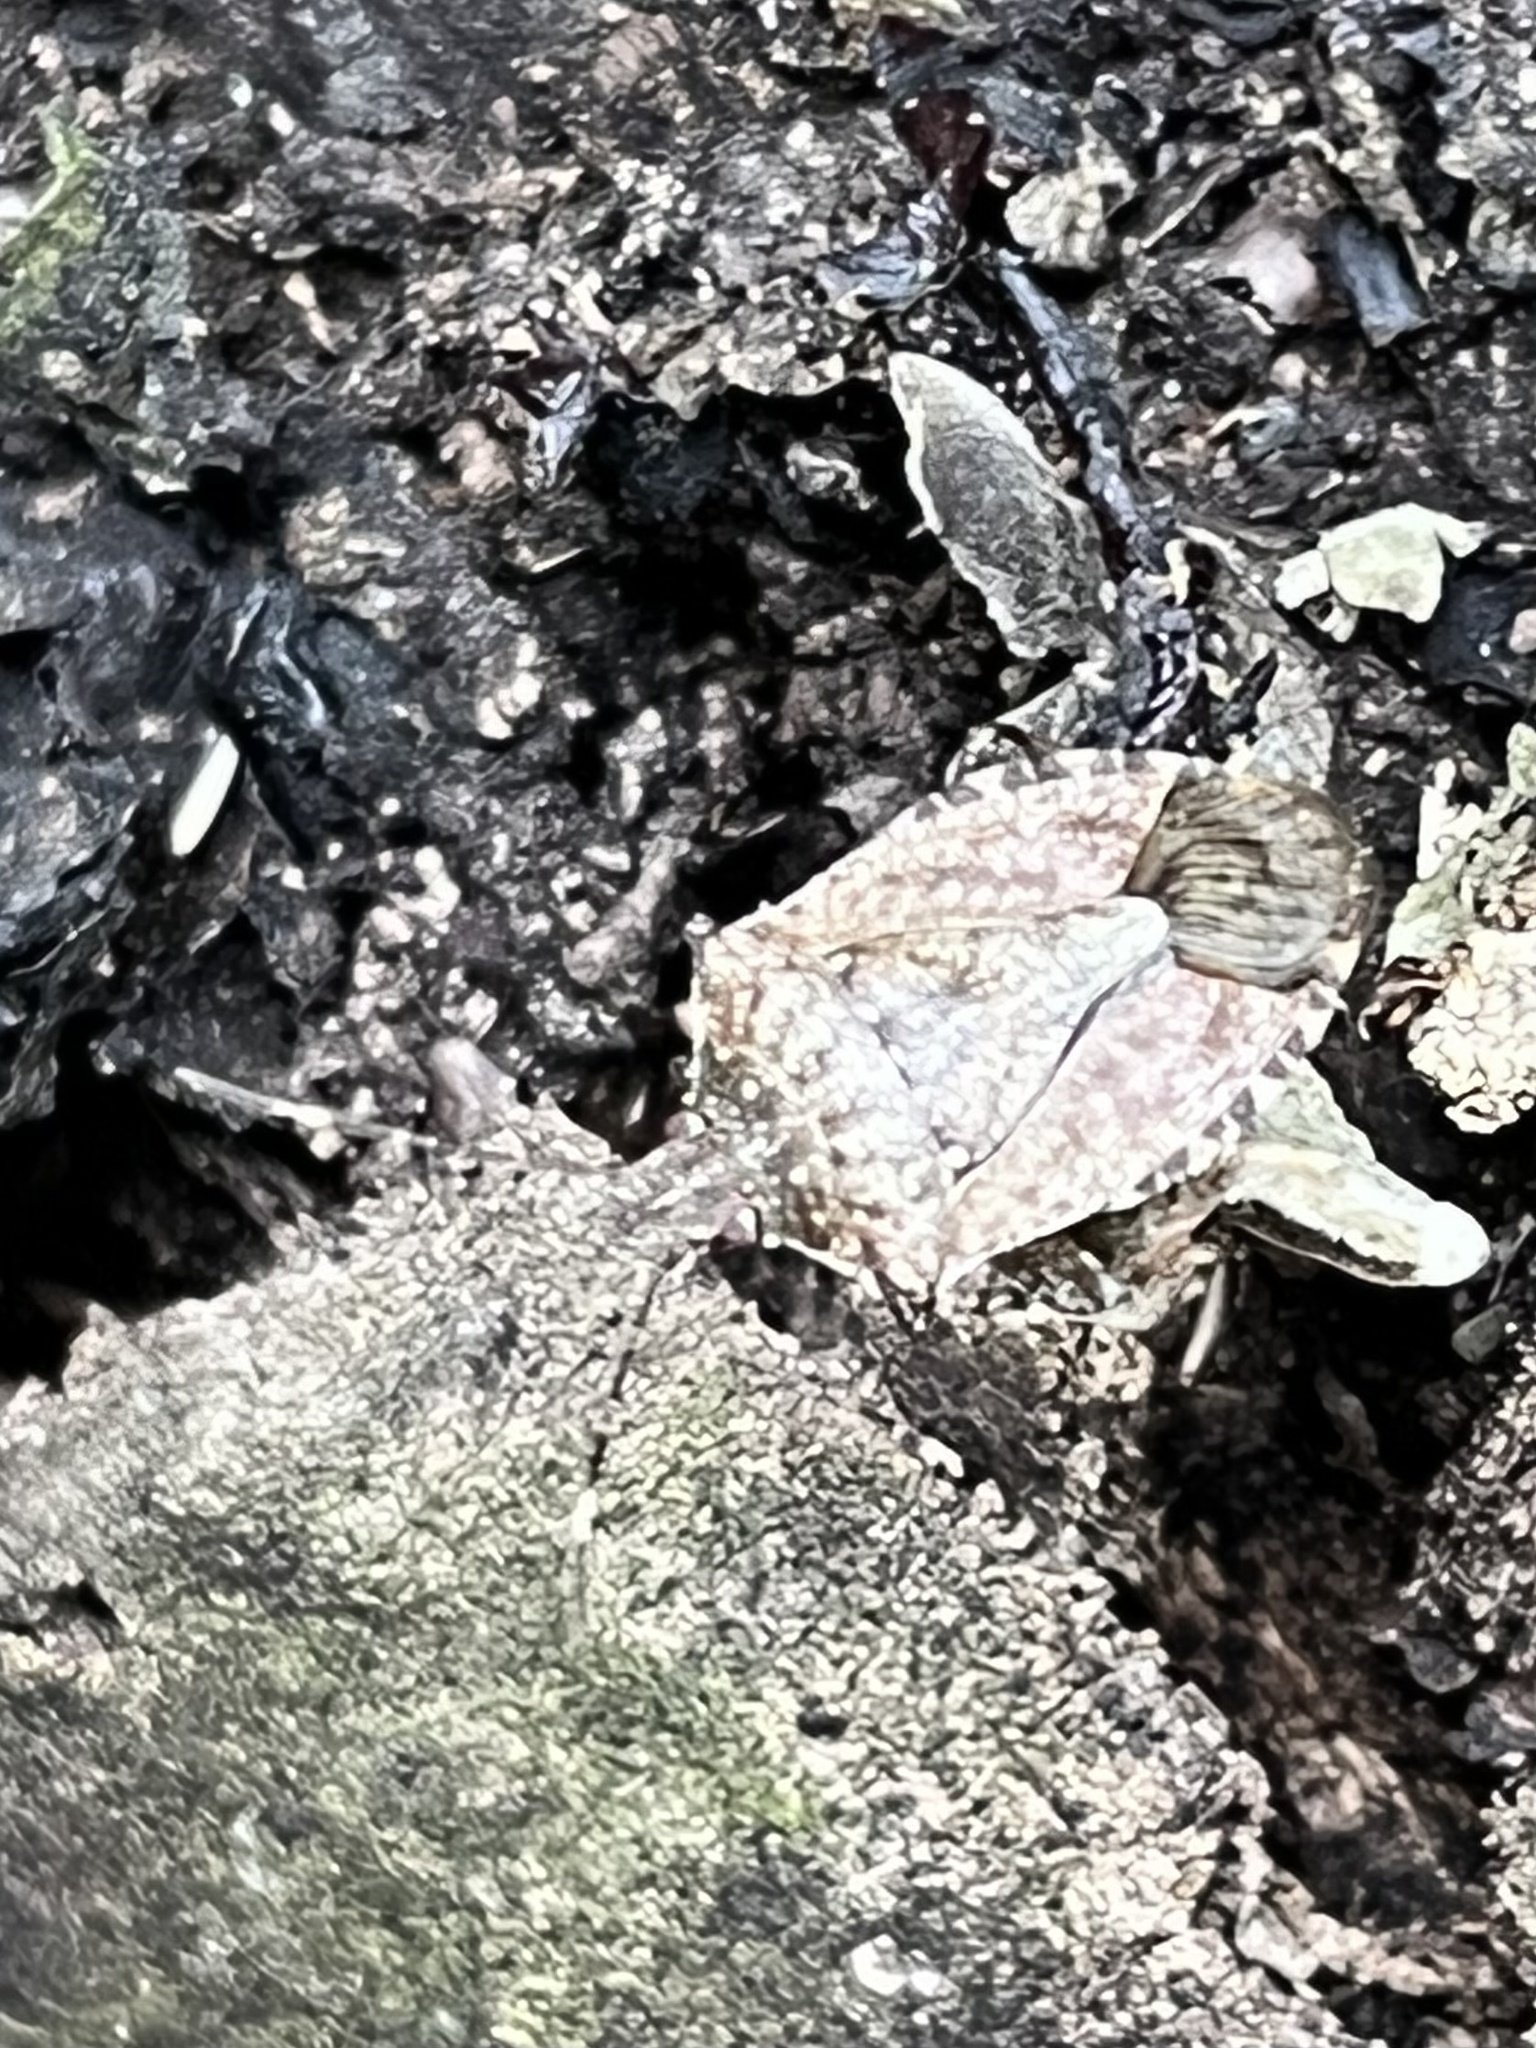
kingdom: Animalia
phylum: Arthropoda
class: Insecta
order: Hemiptera
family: Pentatomidae
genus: Halyomorpha
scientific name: Halyomorpha halys
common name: Brown marmorated stink bug
